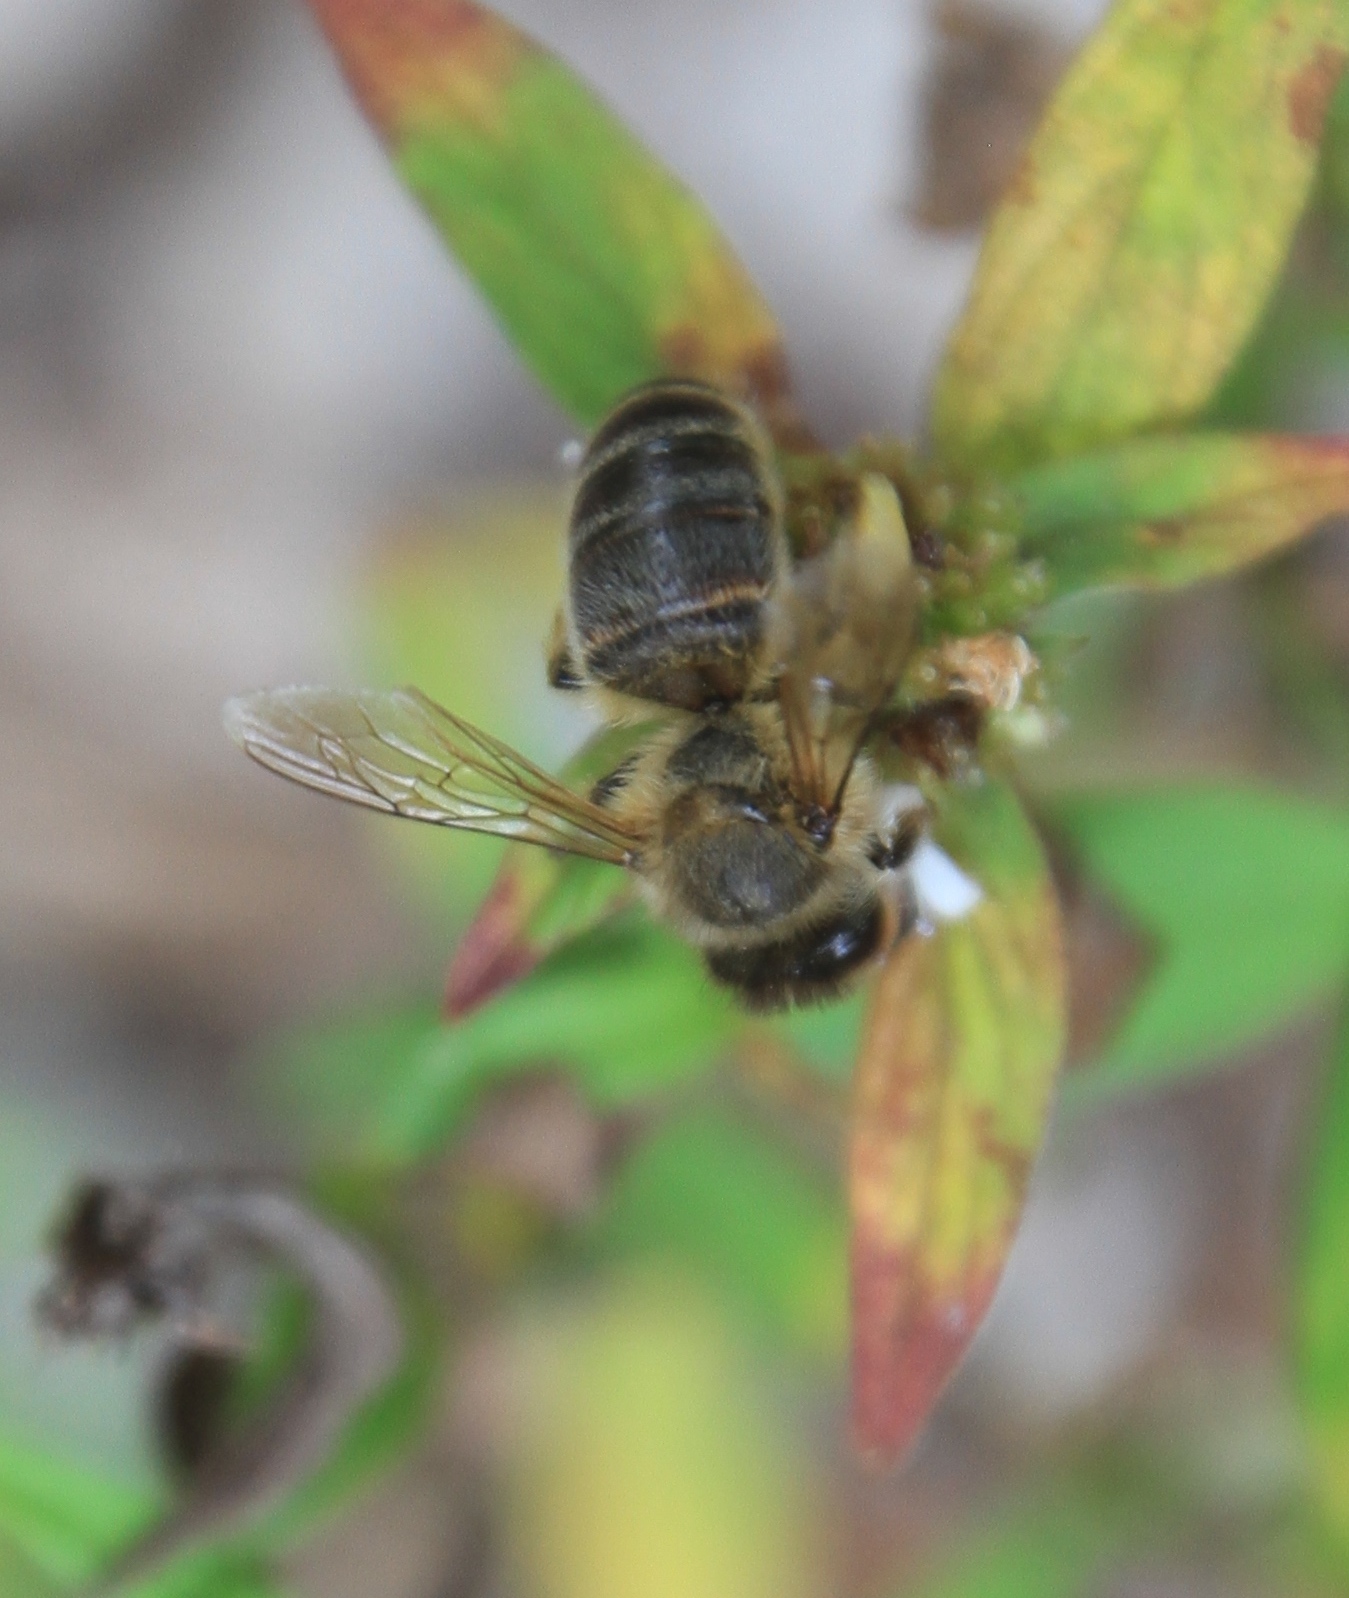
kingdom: Animalia
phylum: Arthropoda
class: Insecta
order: Hymenoptera
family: Apidae
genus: Apis
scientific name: Apis mellifera
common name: Honey bee
